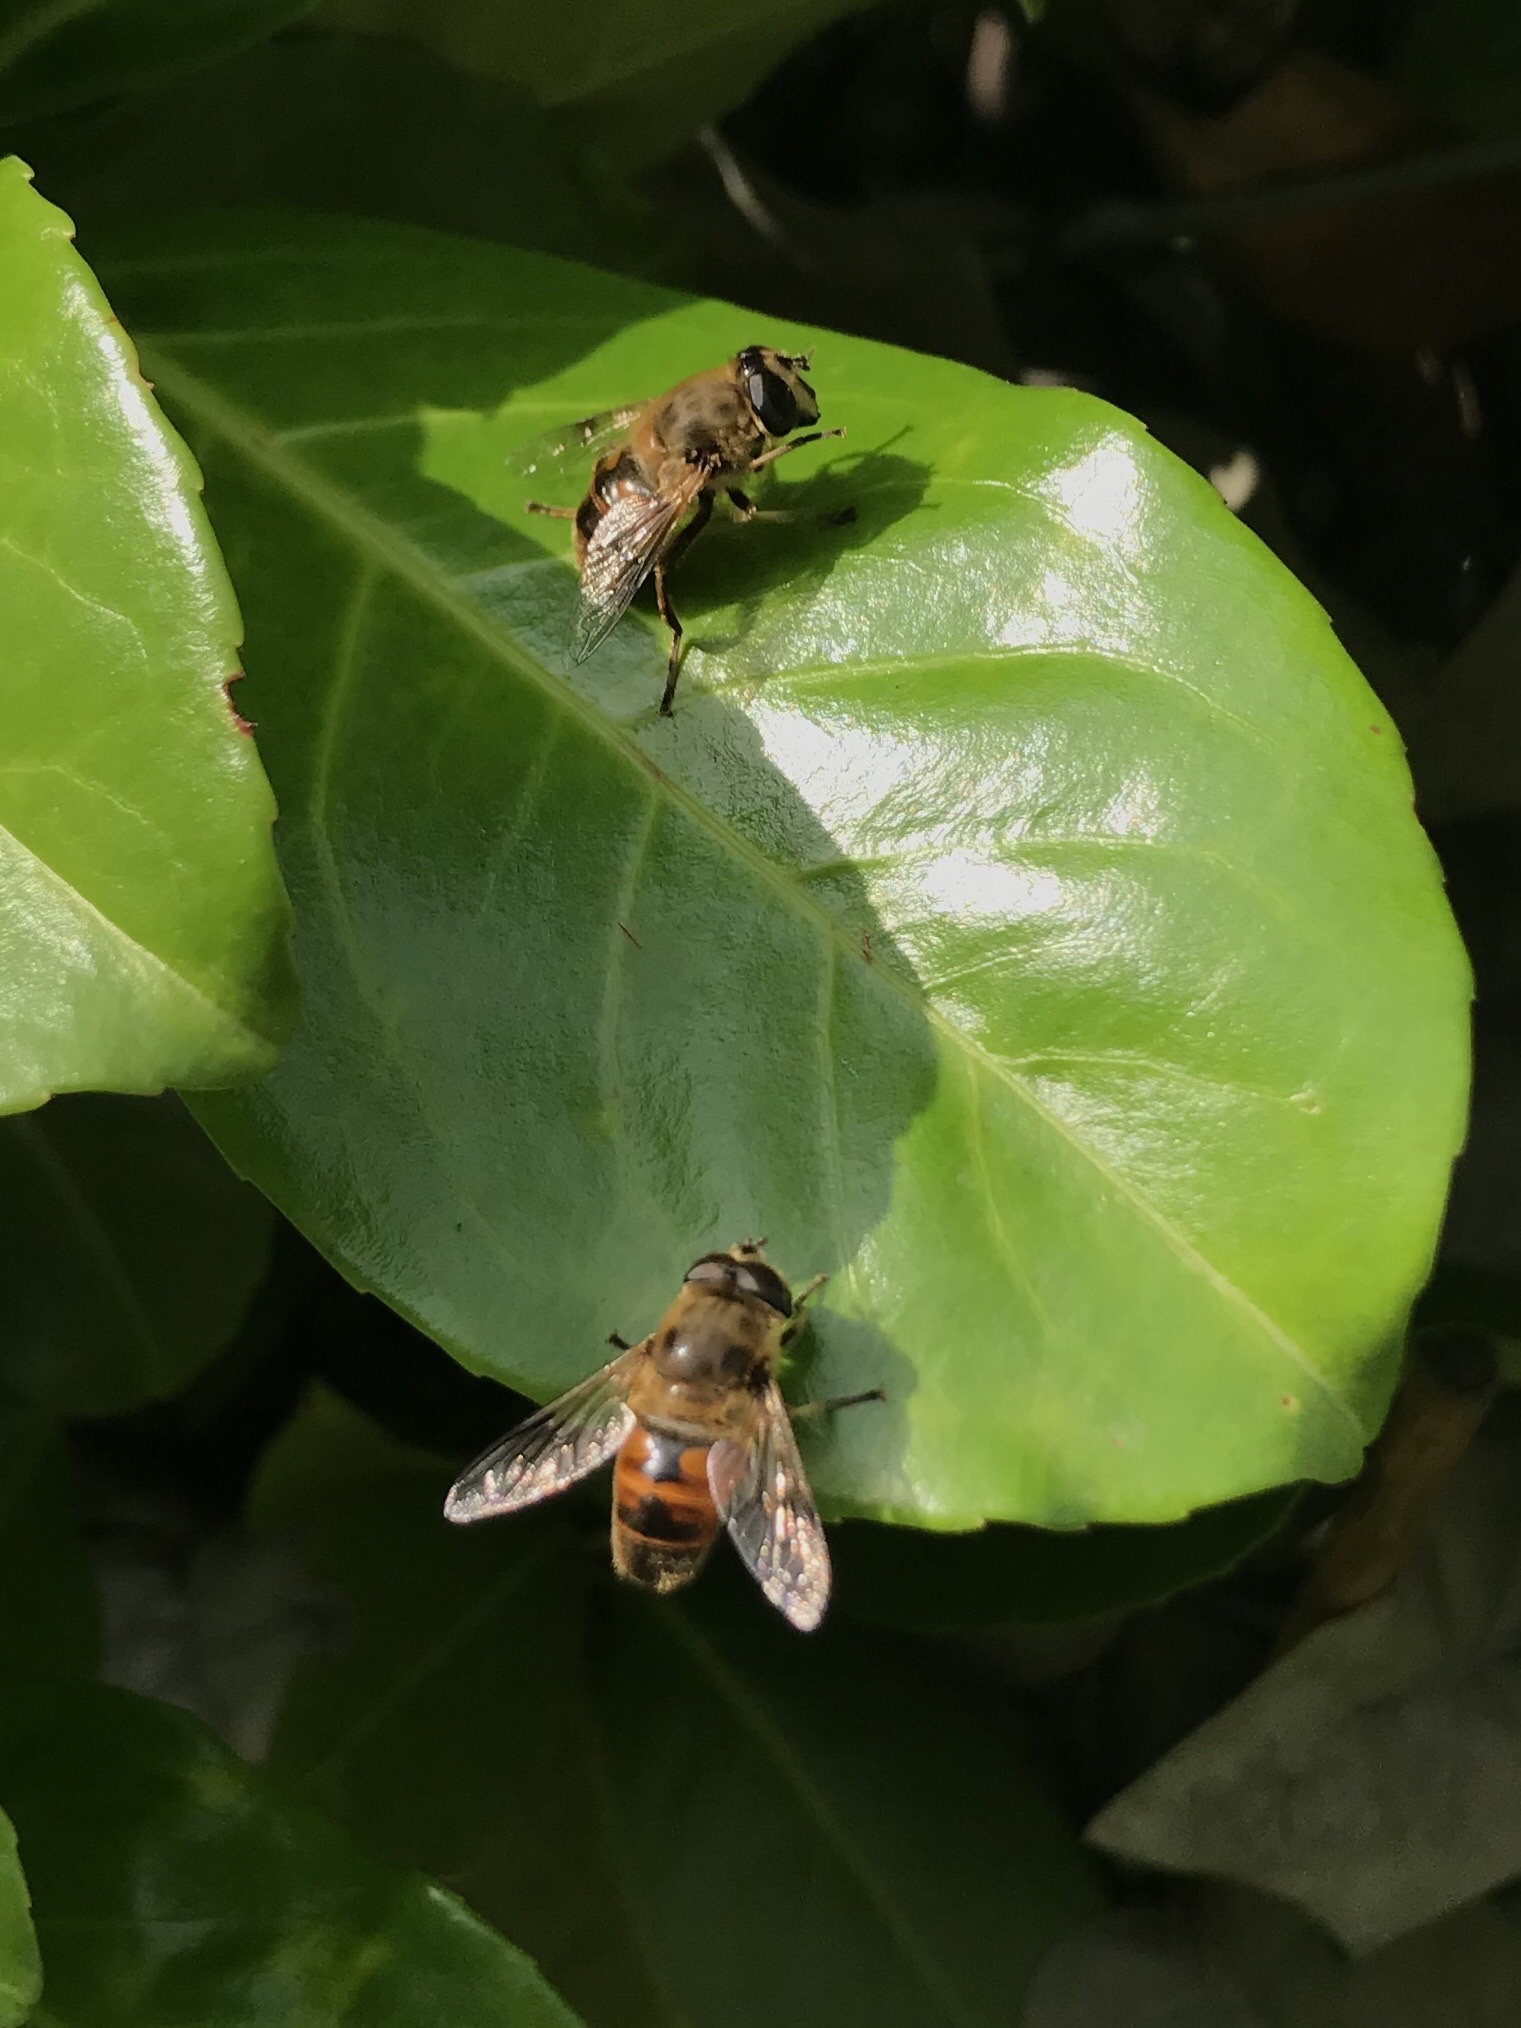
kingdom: Animalia
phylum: Arthropoda
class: Insecta
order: Diptera
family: Syrphidae
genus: Eristalis
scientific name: Eristalis tenax
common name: Drone fly
